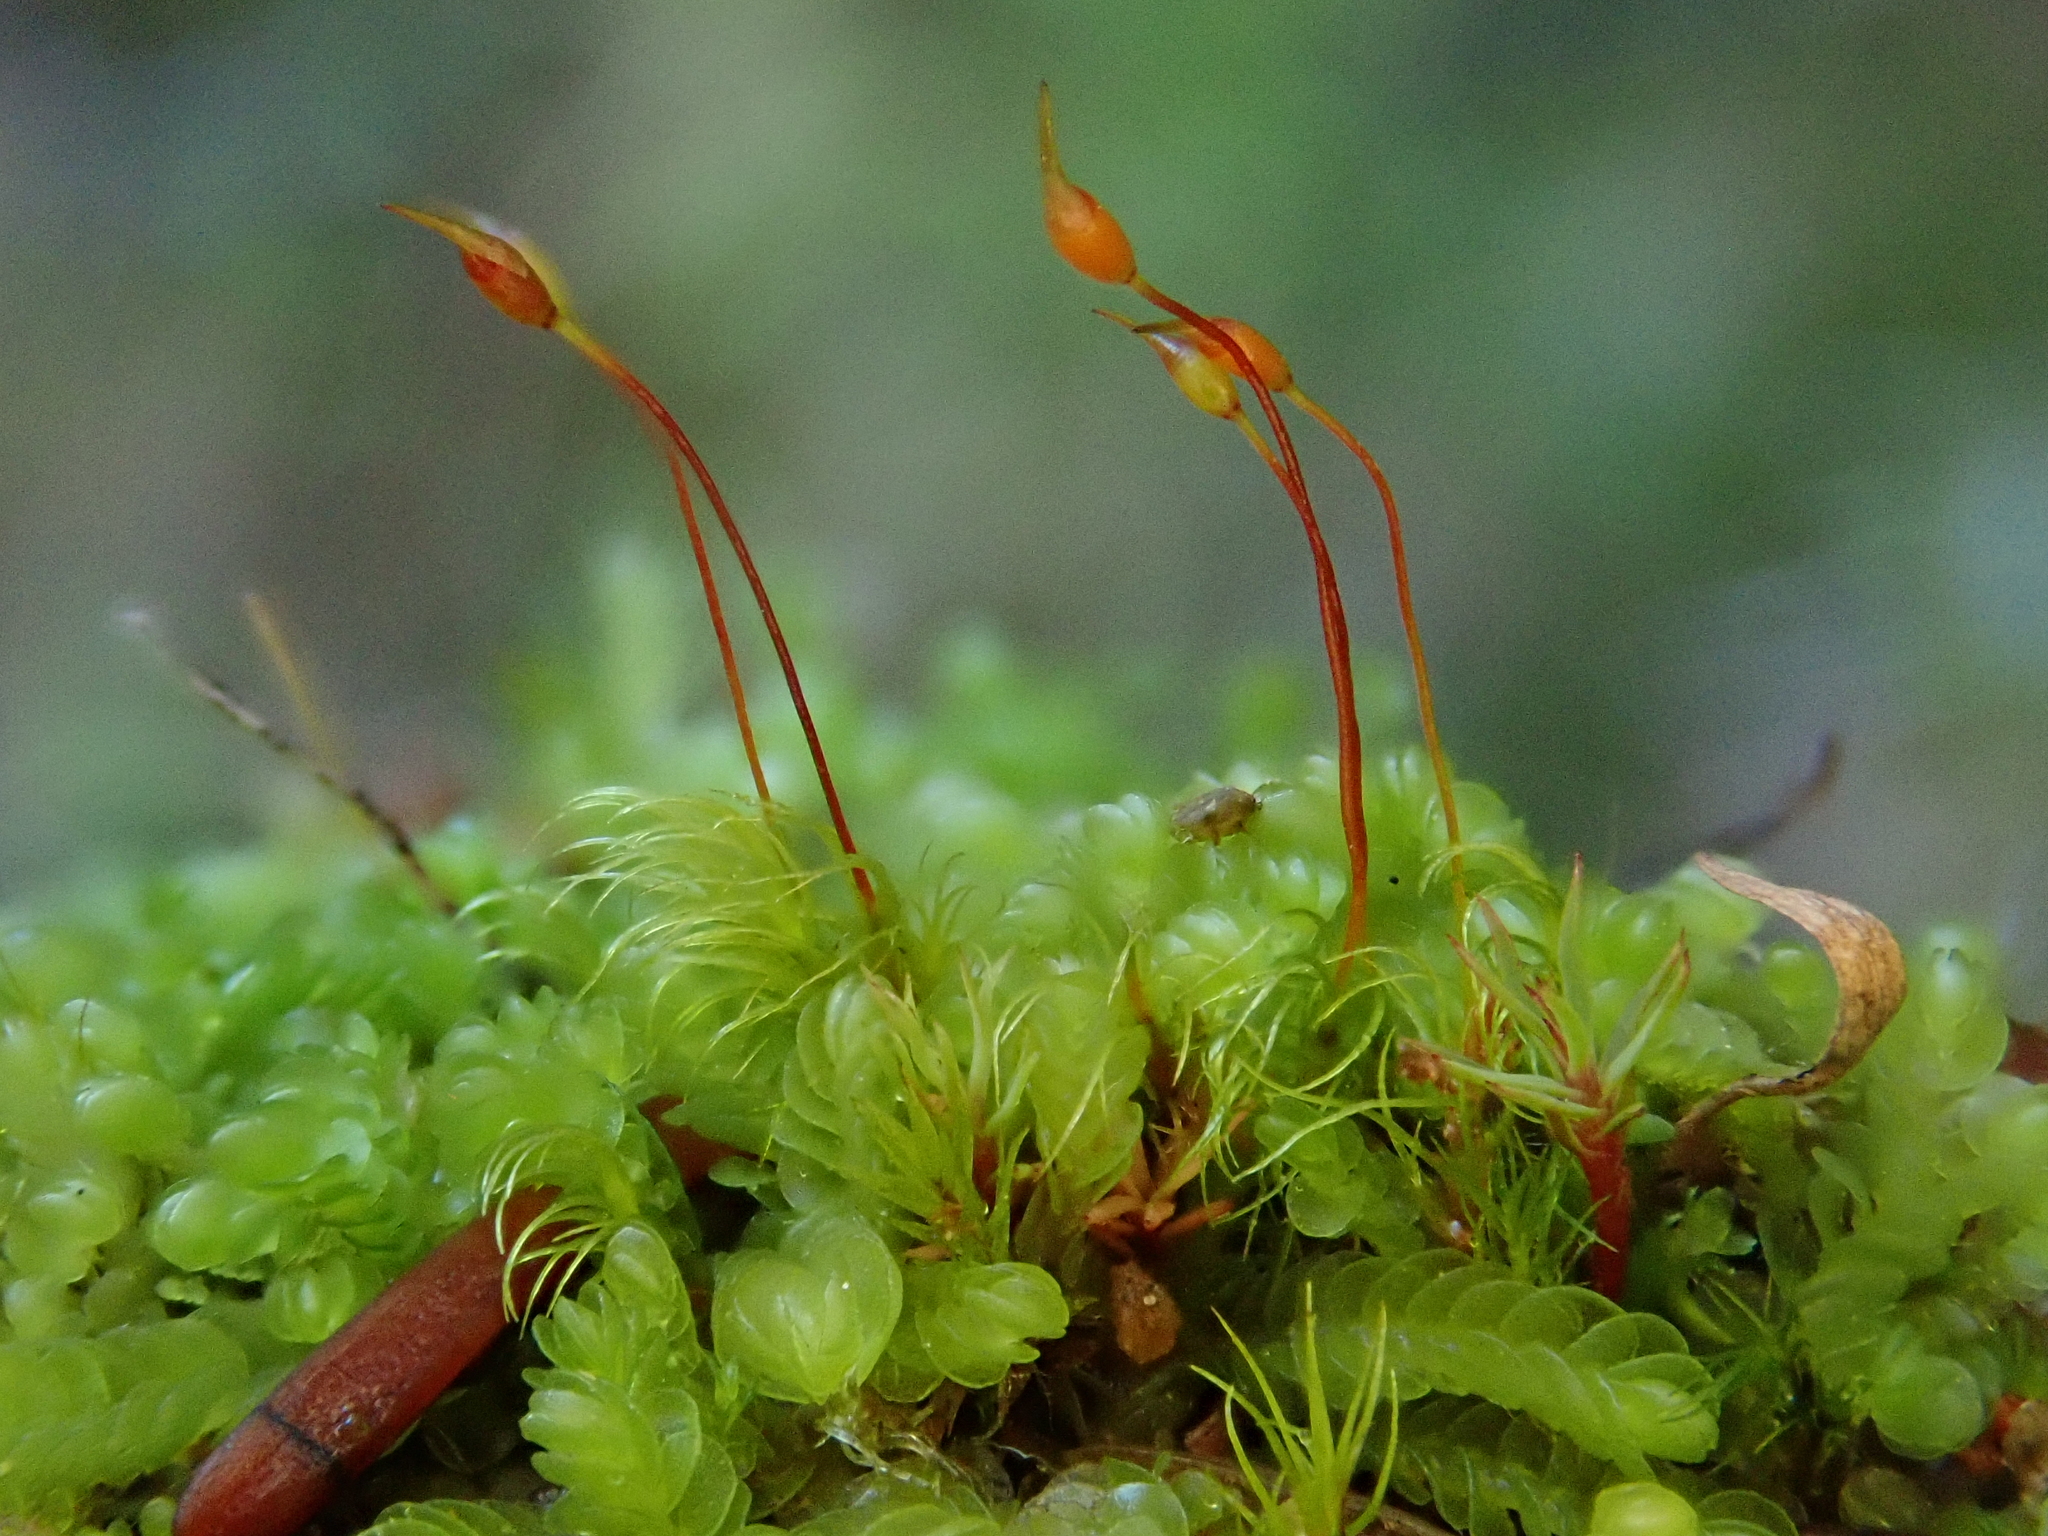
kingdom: Plantae
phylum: Bryophyta
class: Bryopsida
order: Dicranales
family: Dicranellaceae
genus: Dicranella
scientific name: Dicranella subulata
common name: Awl-leaved forklet moss
